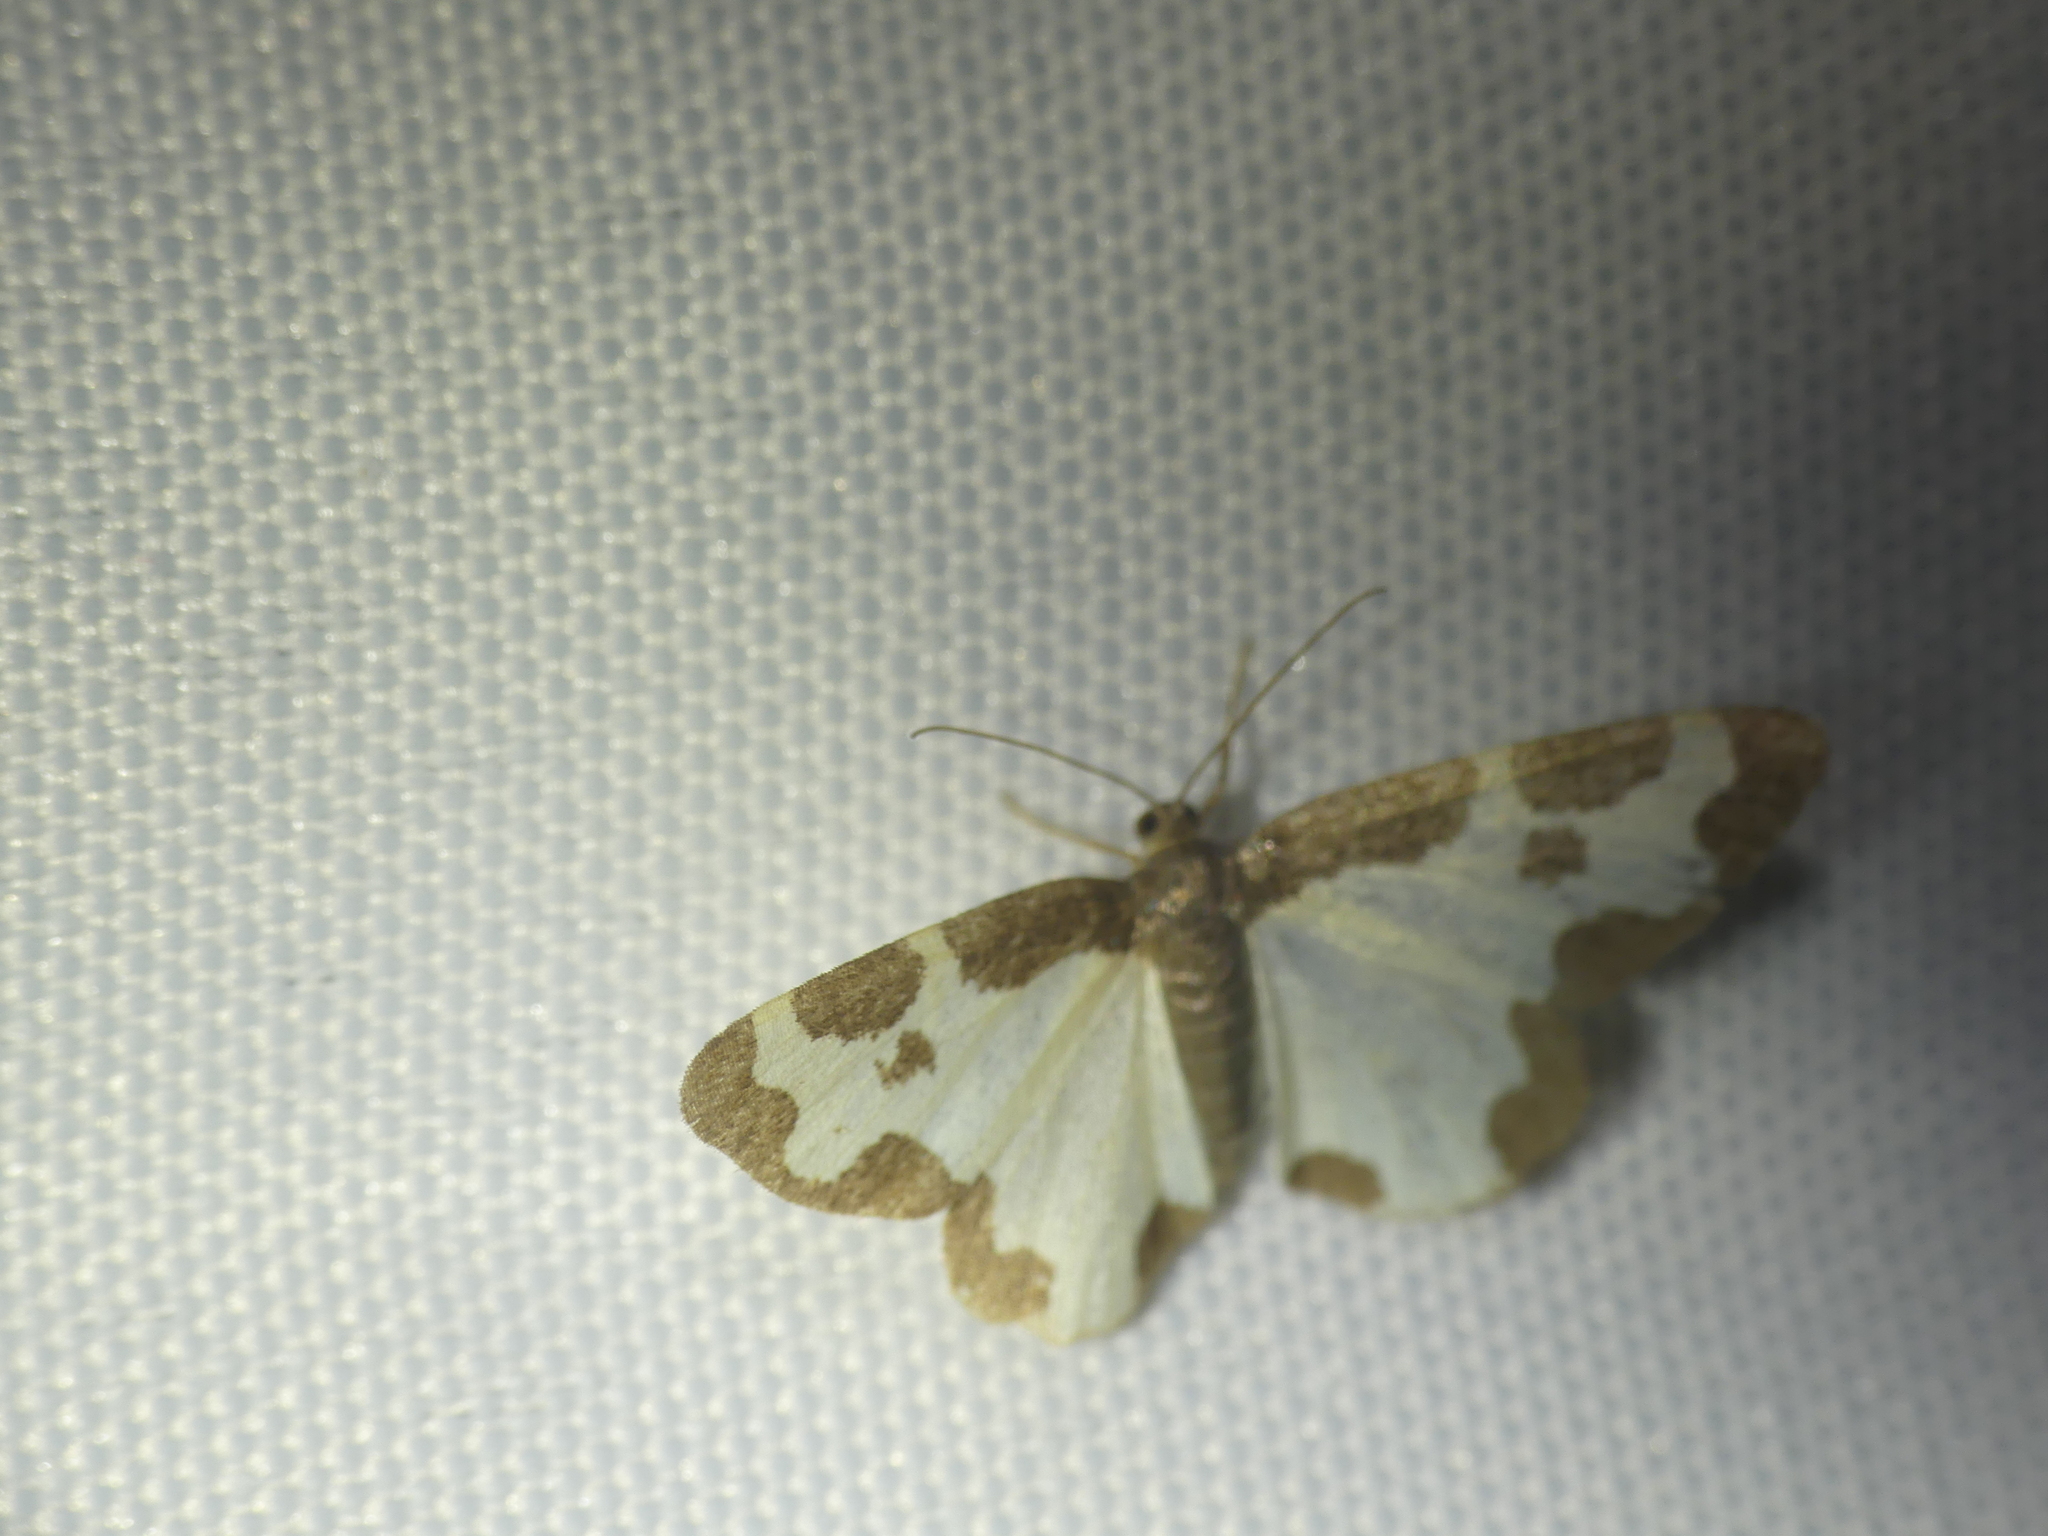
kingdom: Animalia
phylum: Arthropoda
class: Insecta
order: Lepidoptera
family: Geometridae
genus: Lomaspilis
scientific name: Lomaspilis marginata
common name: Clouded border
